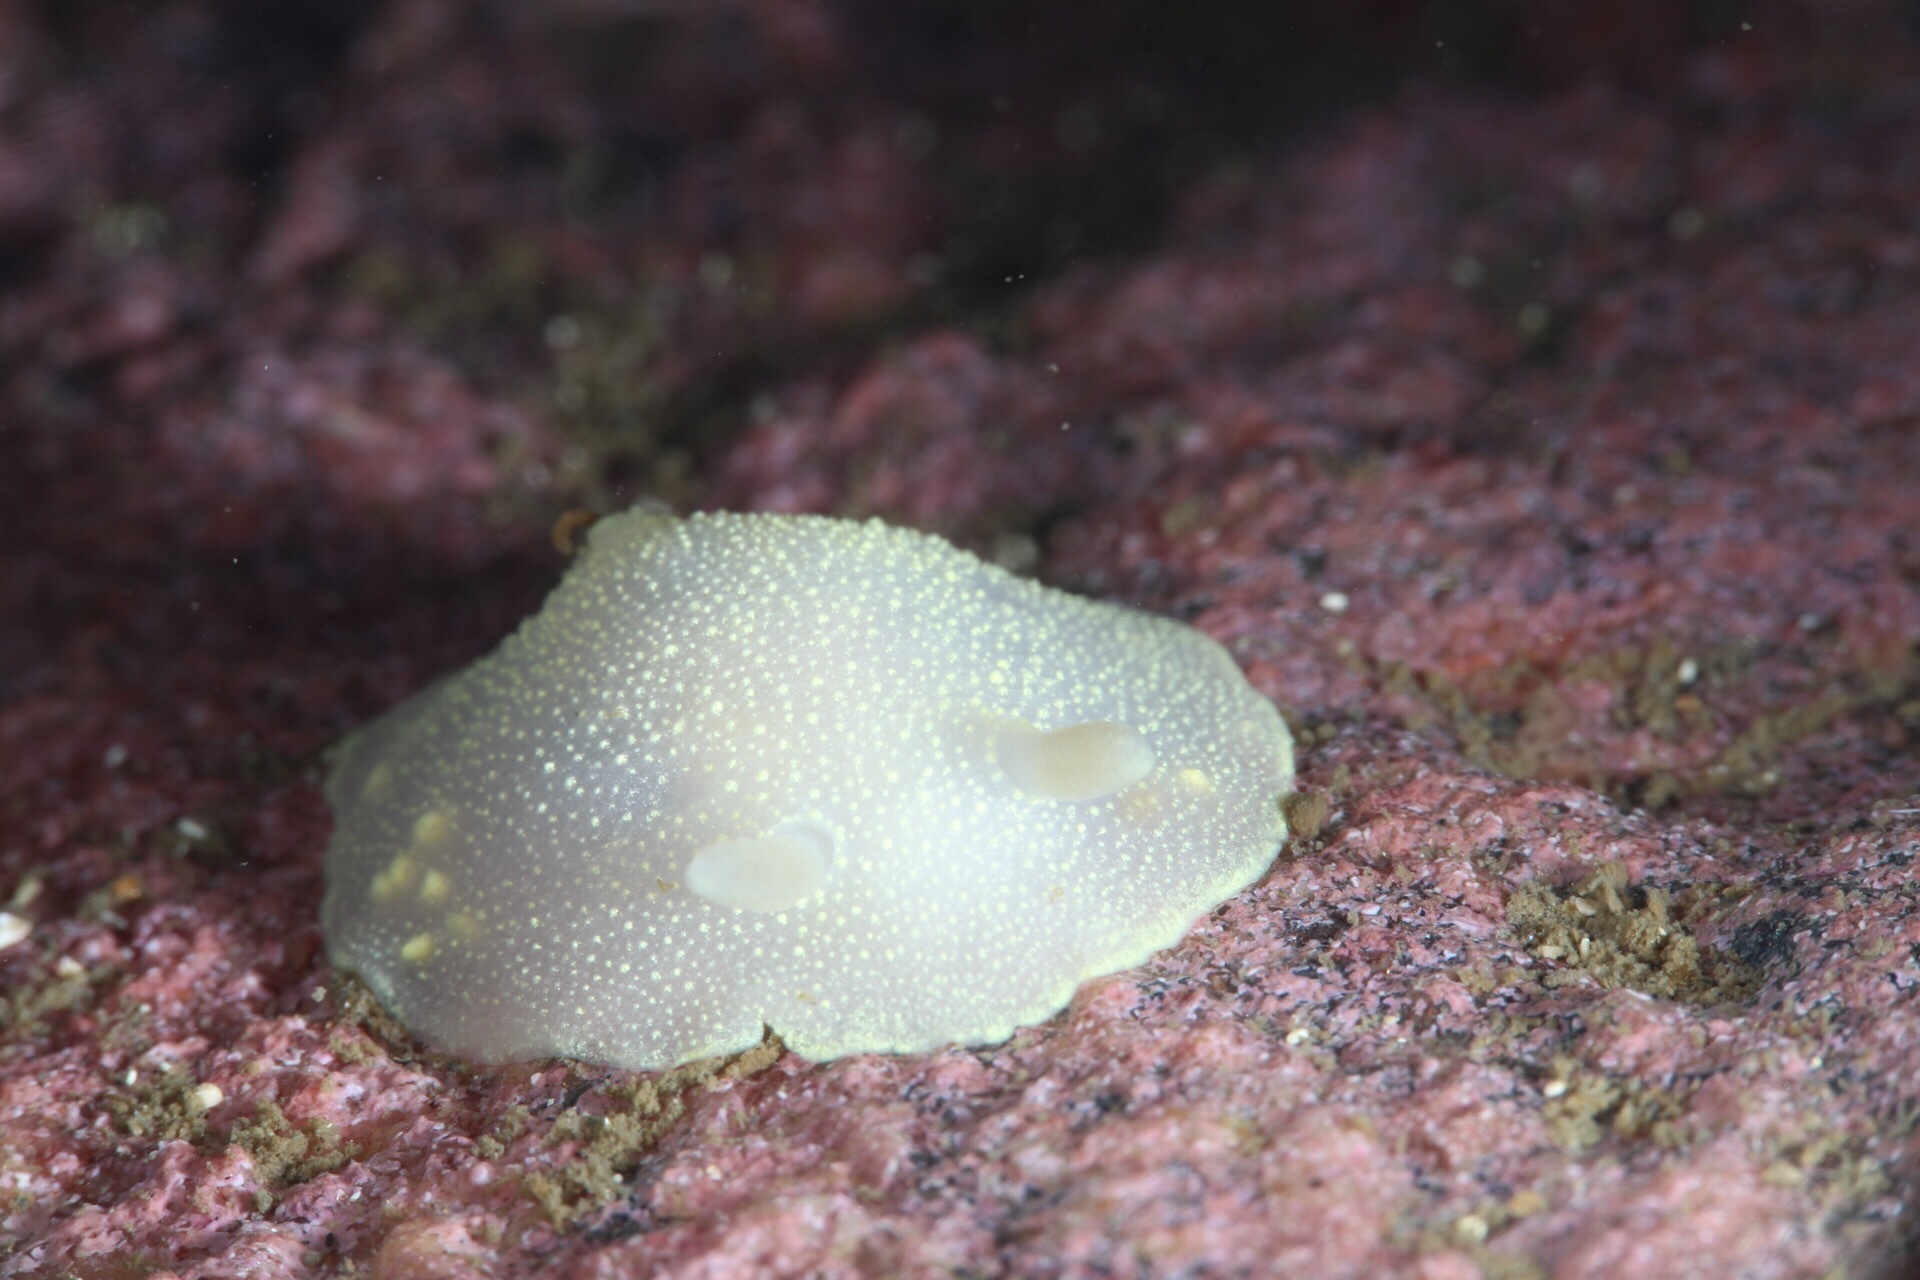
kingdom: Animalia
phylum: Mollusca
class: Gastropoda
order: Nudibranchia
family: Cadlinidae
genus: Cadlina
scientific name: Cadlina laevis
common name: White atlantic cadlina
